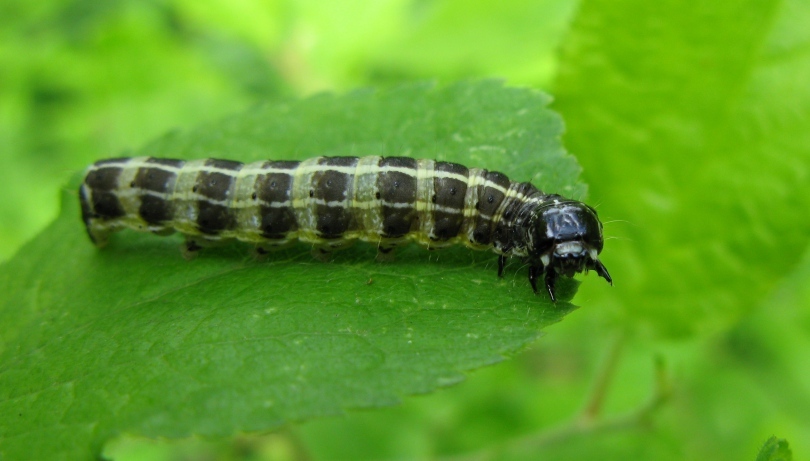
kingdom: Animalia
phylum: Arthropoda
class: Insecta
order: Lepidoptera
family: Noctuidae
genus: Orthosia
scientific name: Orthosia cruda
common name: Small quaker
